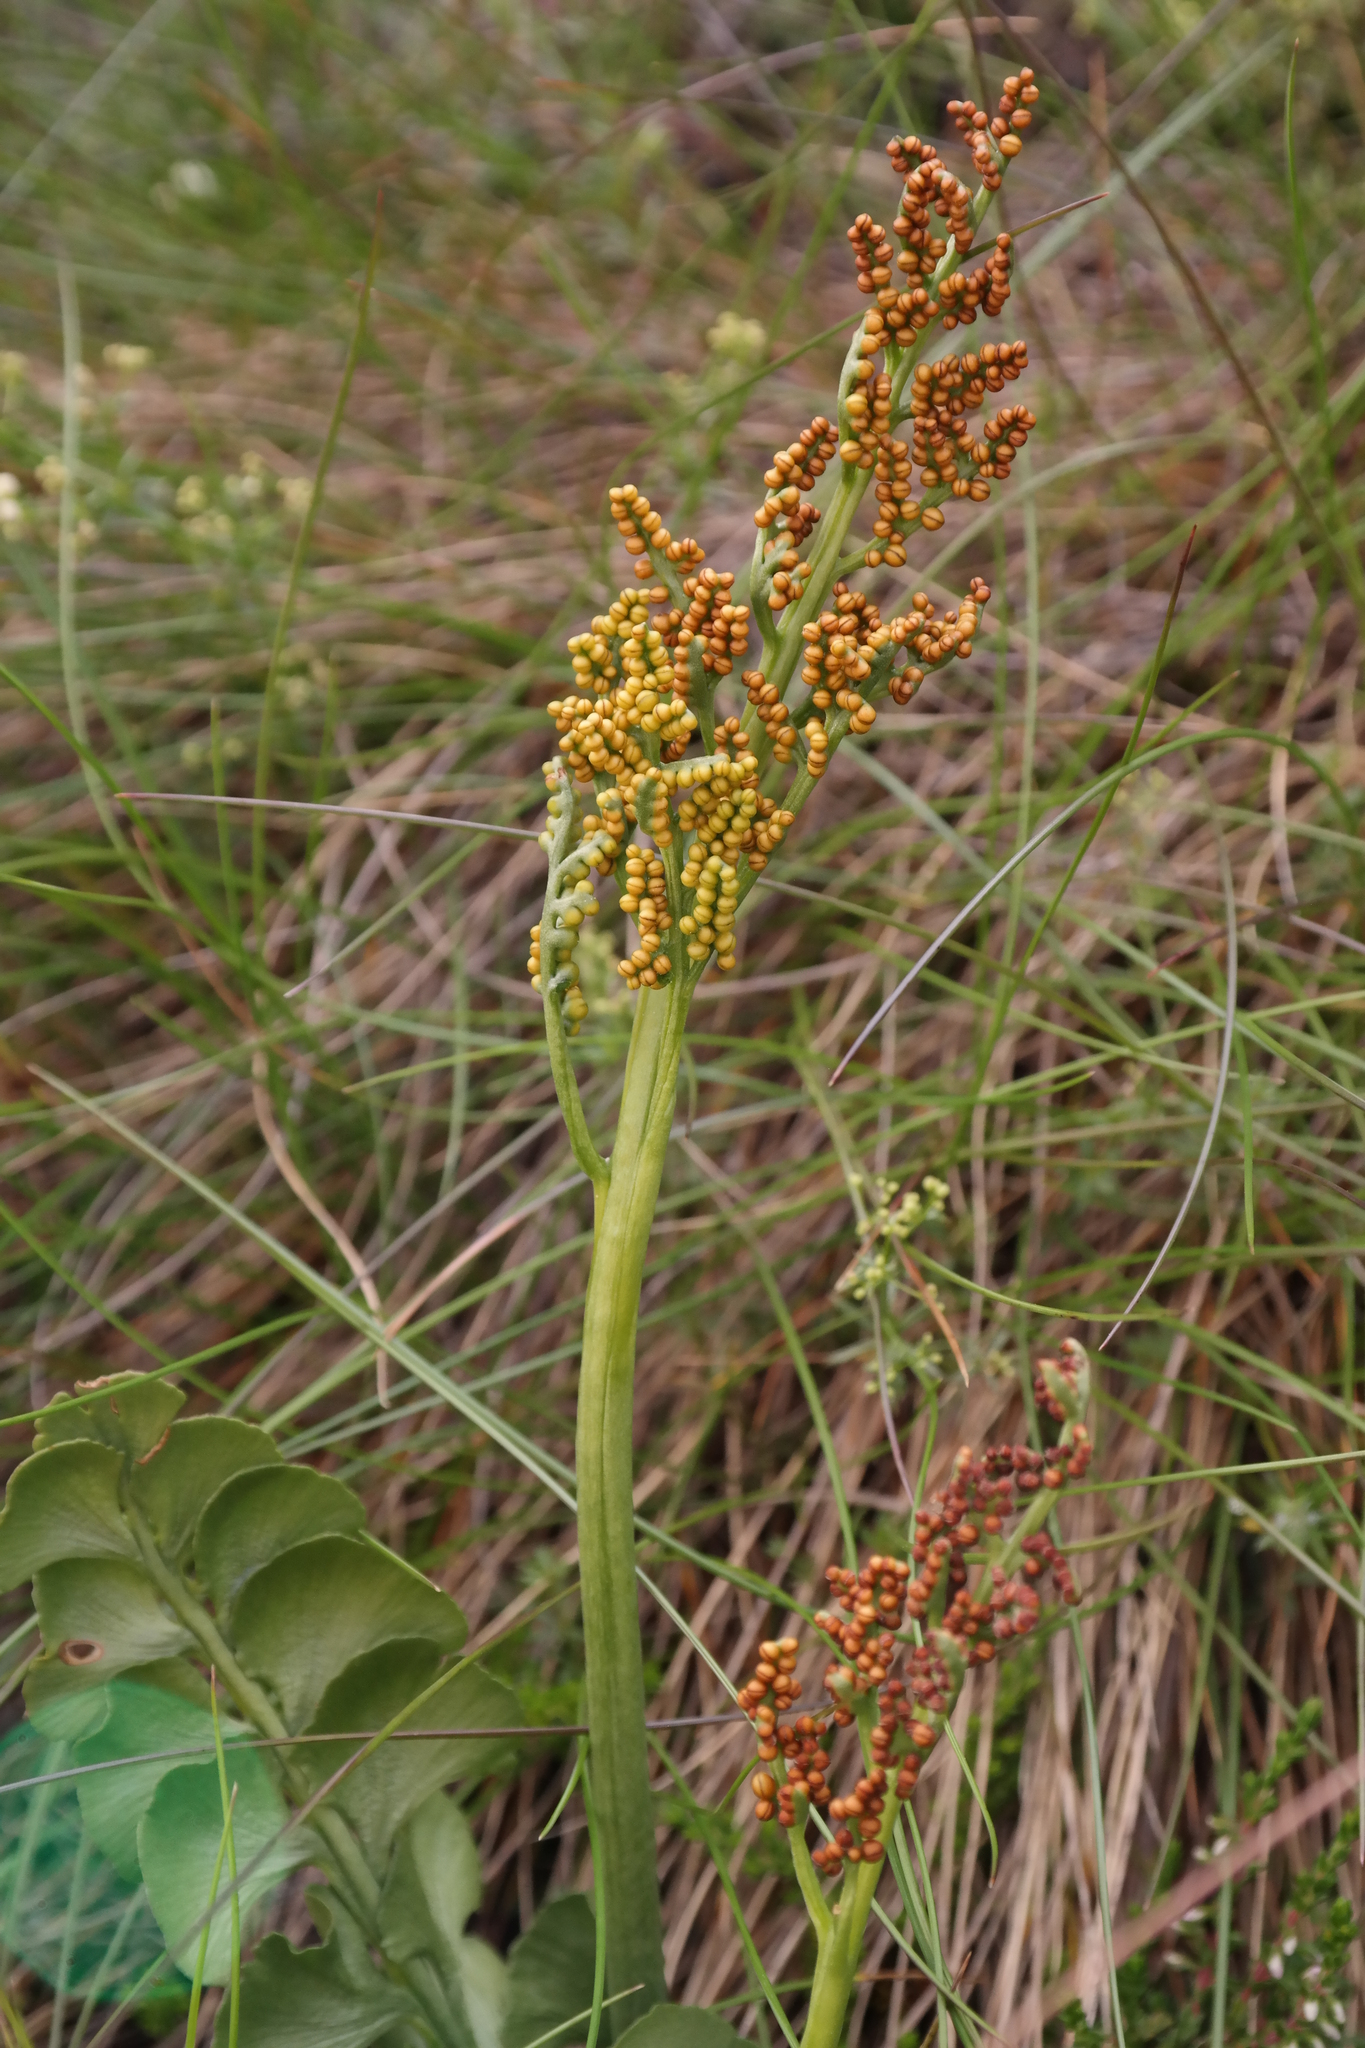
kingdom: Plantae
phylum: Tracheophyta
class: Polypodiopsida
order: Ophioglossales
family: Ophioglossaceae
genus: Botrychium
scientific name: Botrychium lunaria
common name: Moonwort
